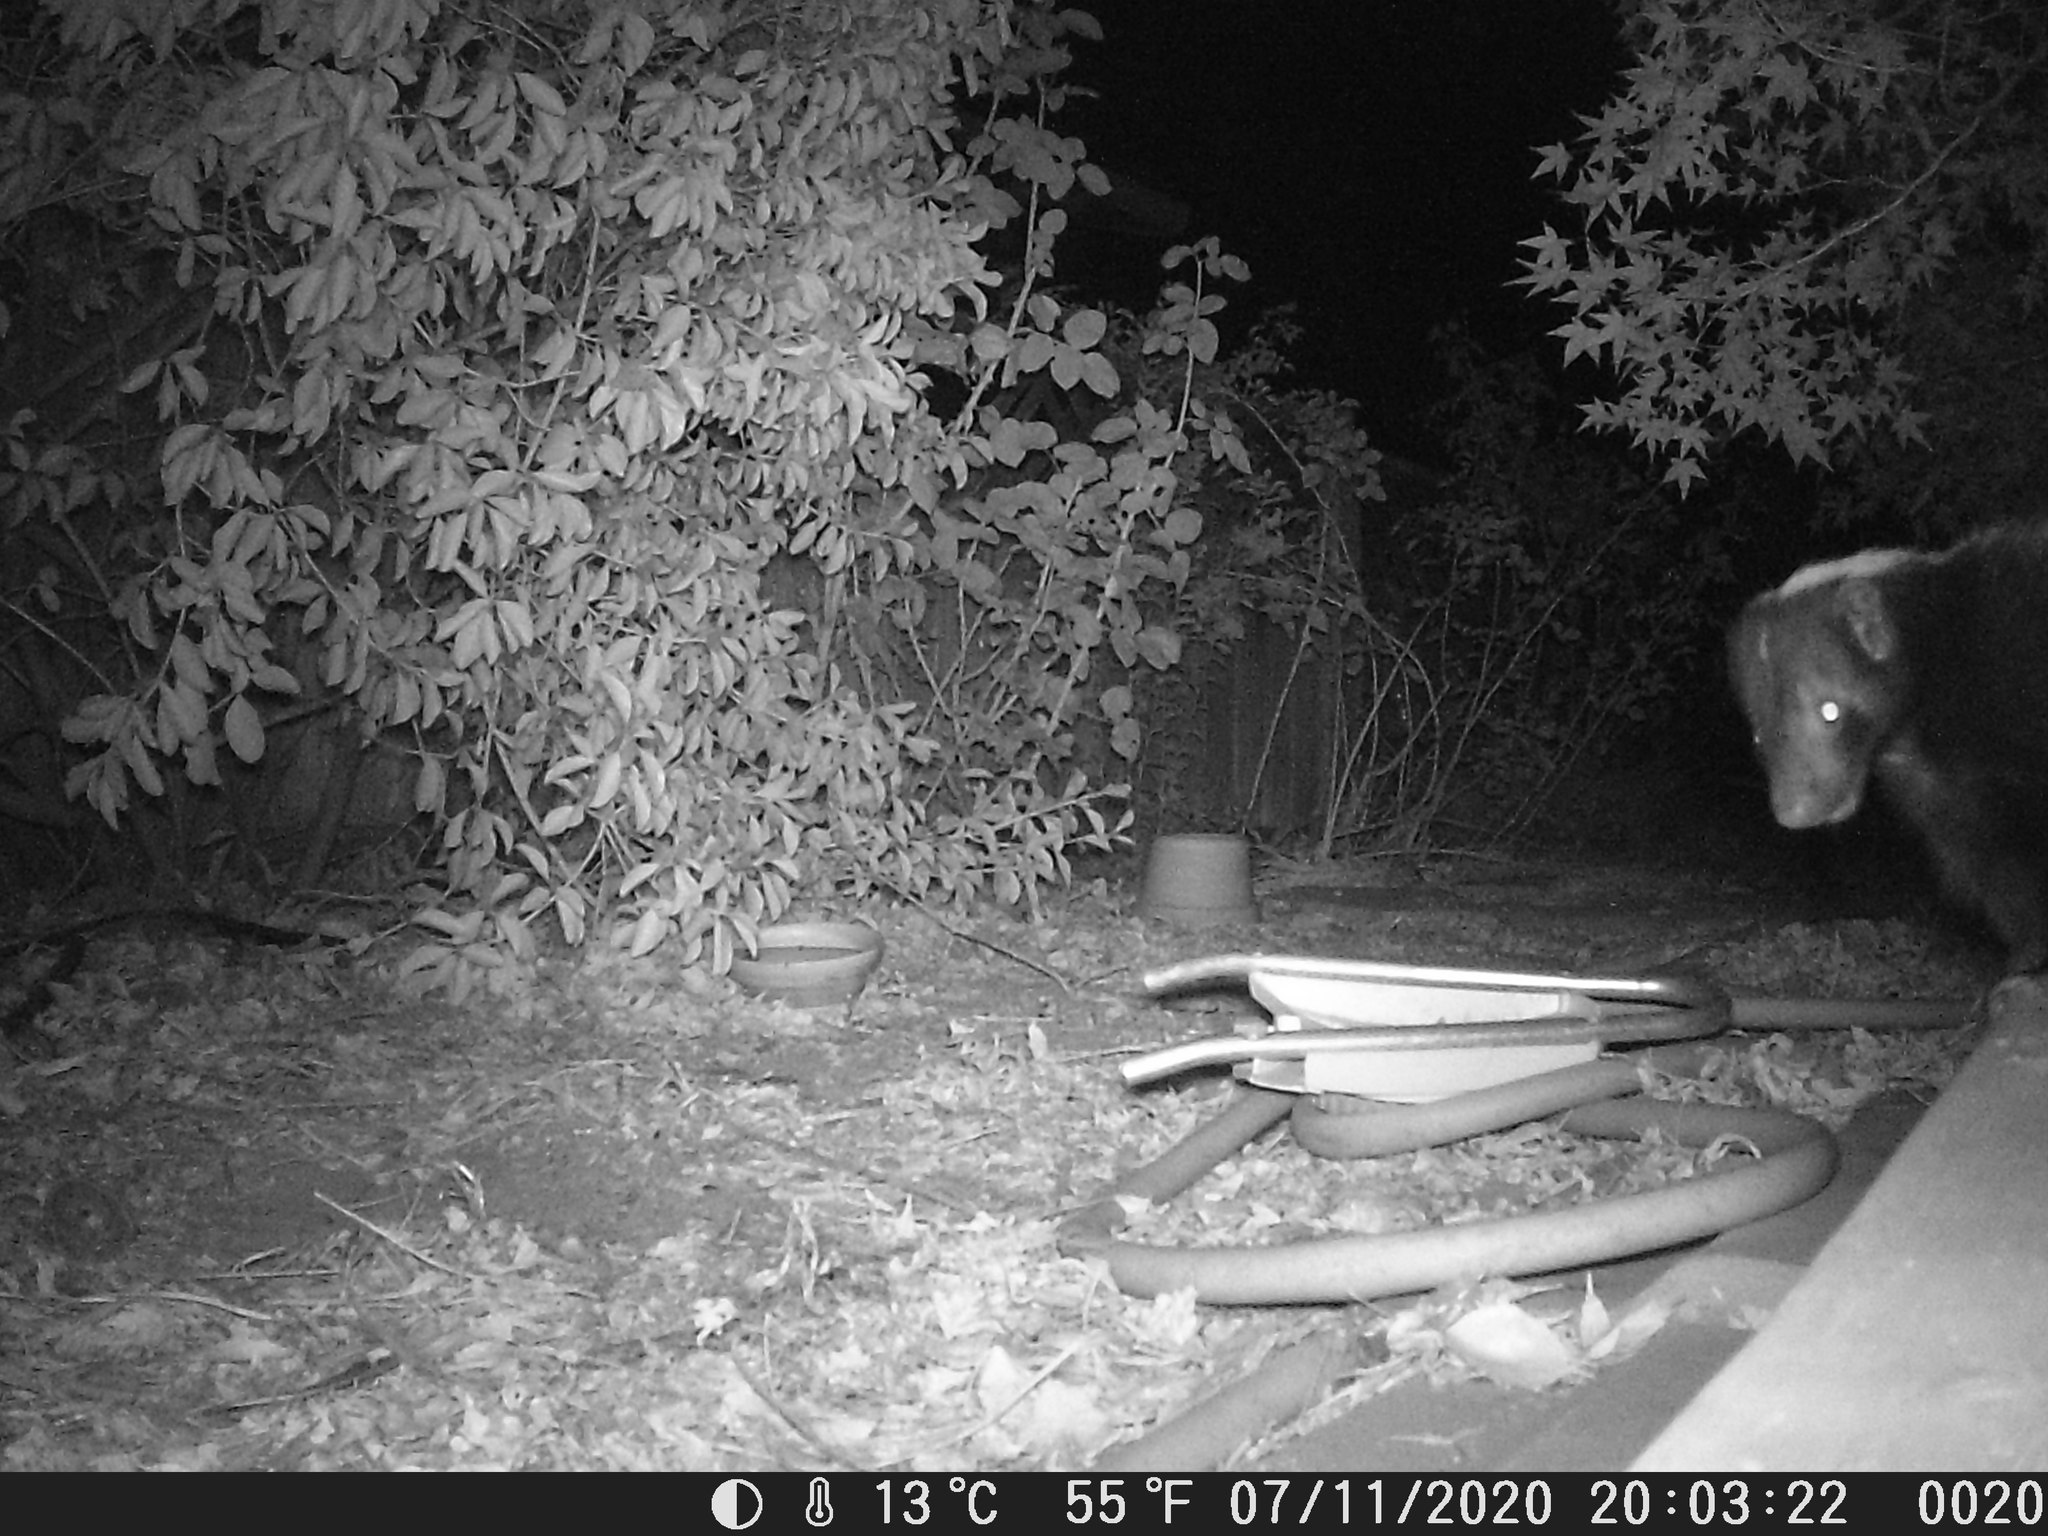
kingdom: Animalia
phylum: Chordata
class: Mammalia
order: Carnivora
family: Mephitidae
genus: Mephitis
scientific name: Mephitis mephitis
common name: Striped skunk
